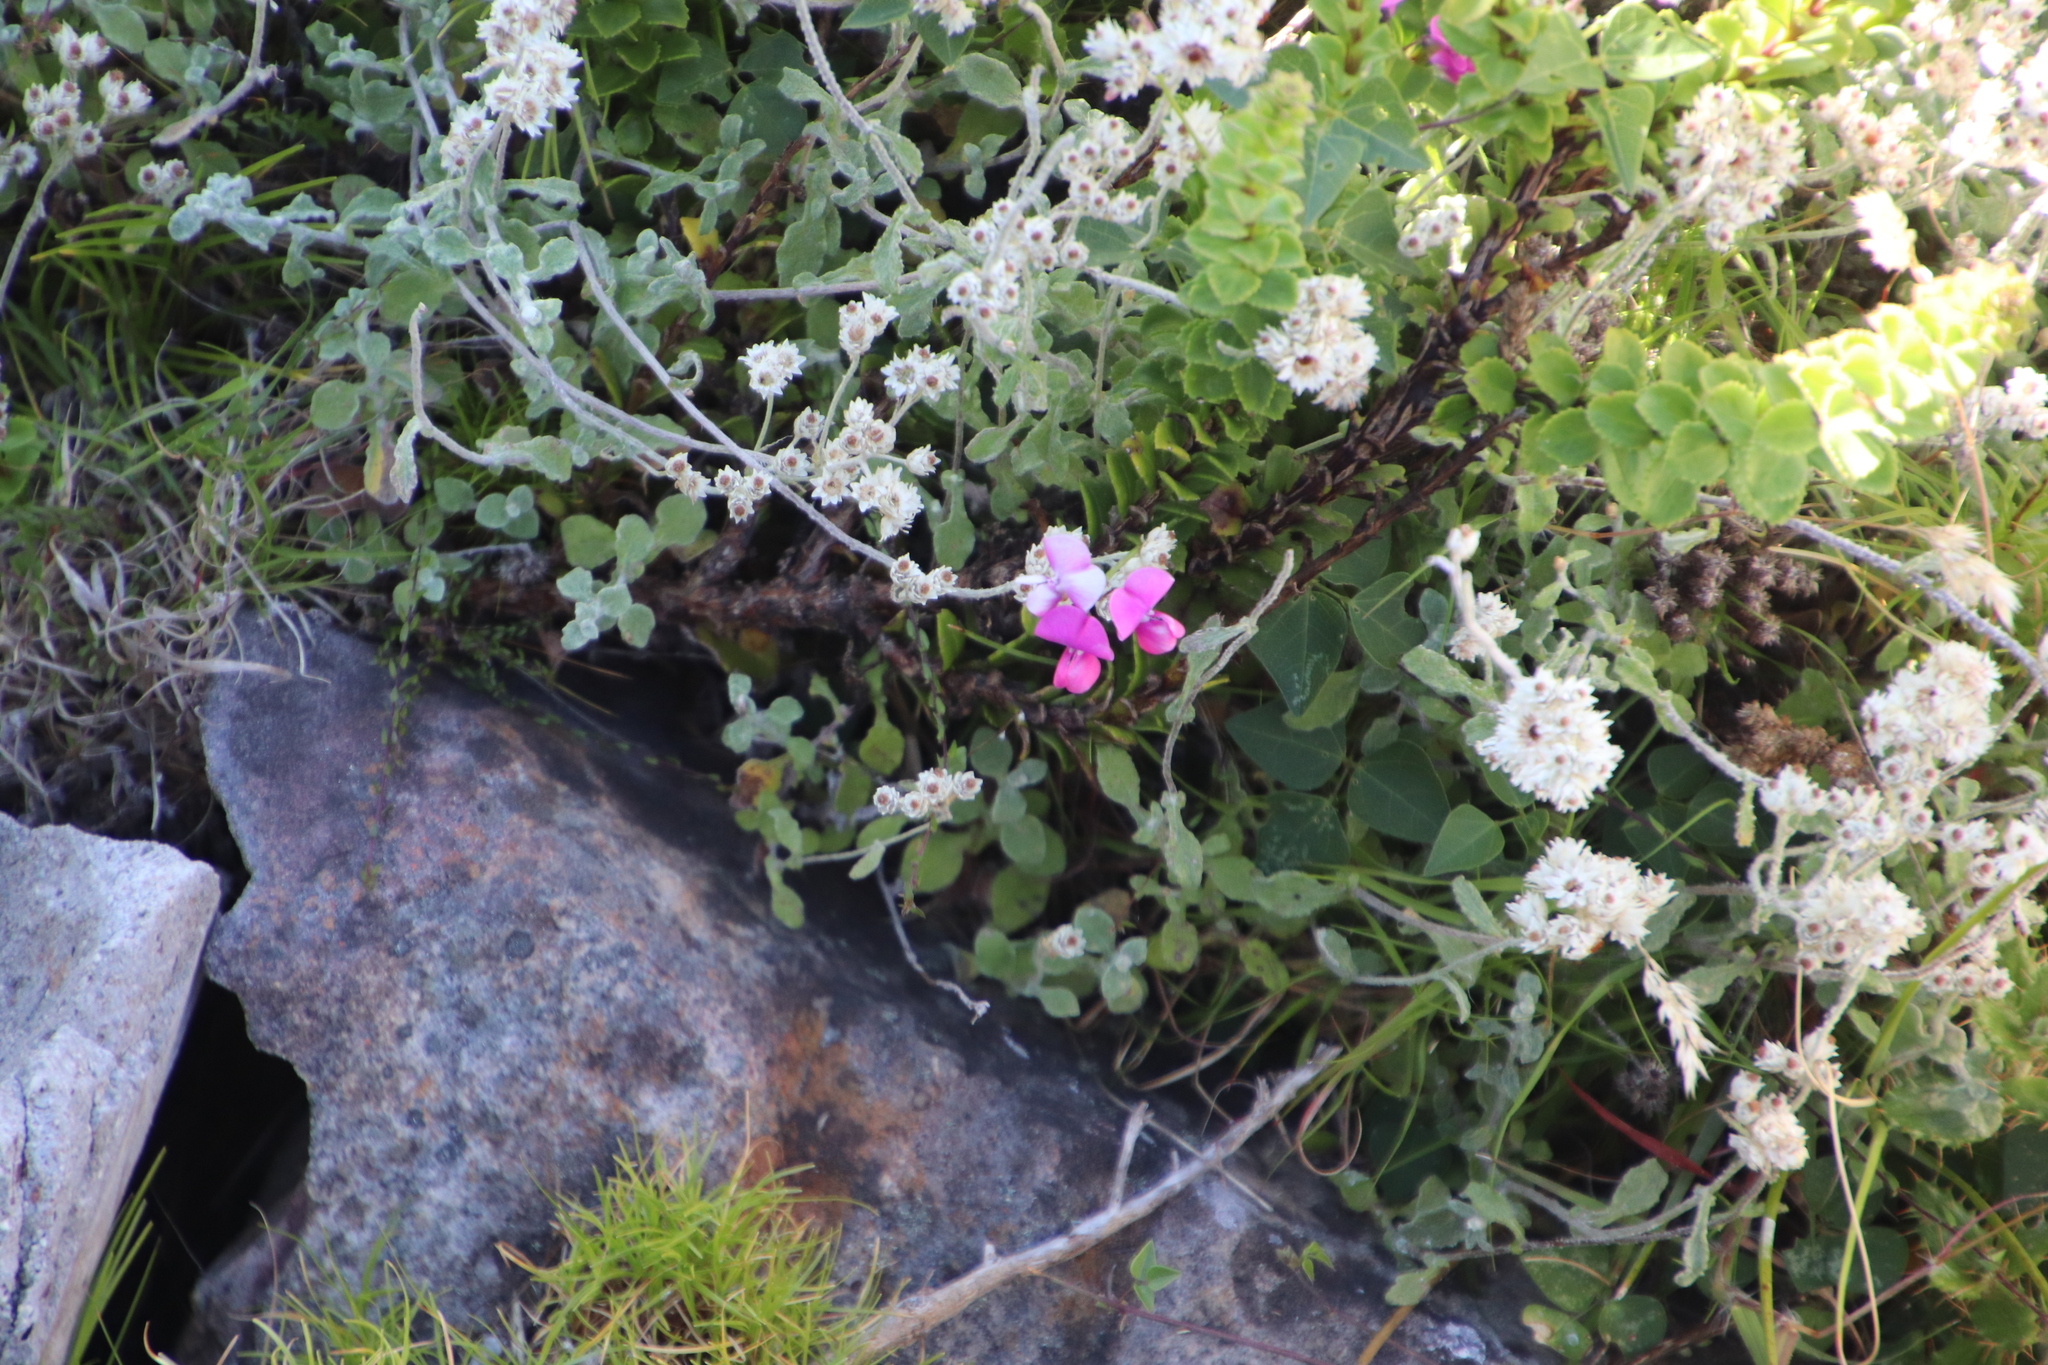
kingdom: Plantae
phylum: Tracheophyta
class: Magnoliopsida
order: Fabales
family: Fabaceae
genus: Dipogon
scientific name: Dipogon lignosus
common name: Okie bean
